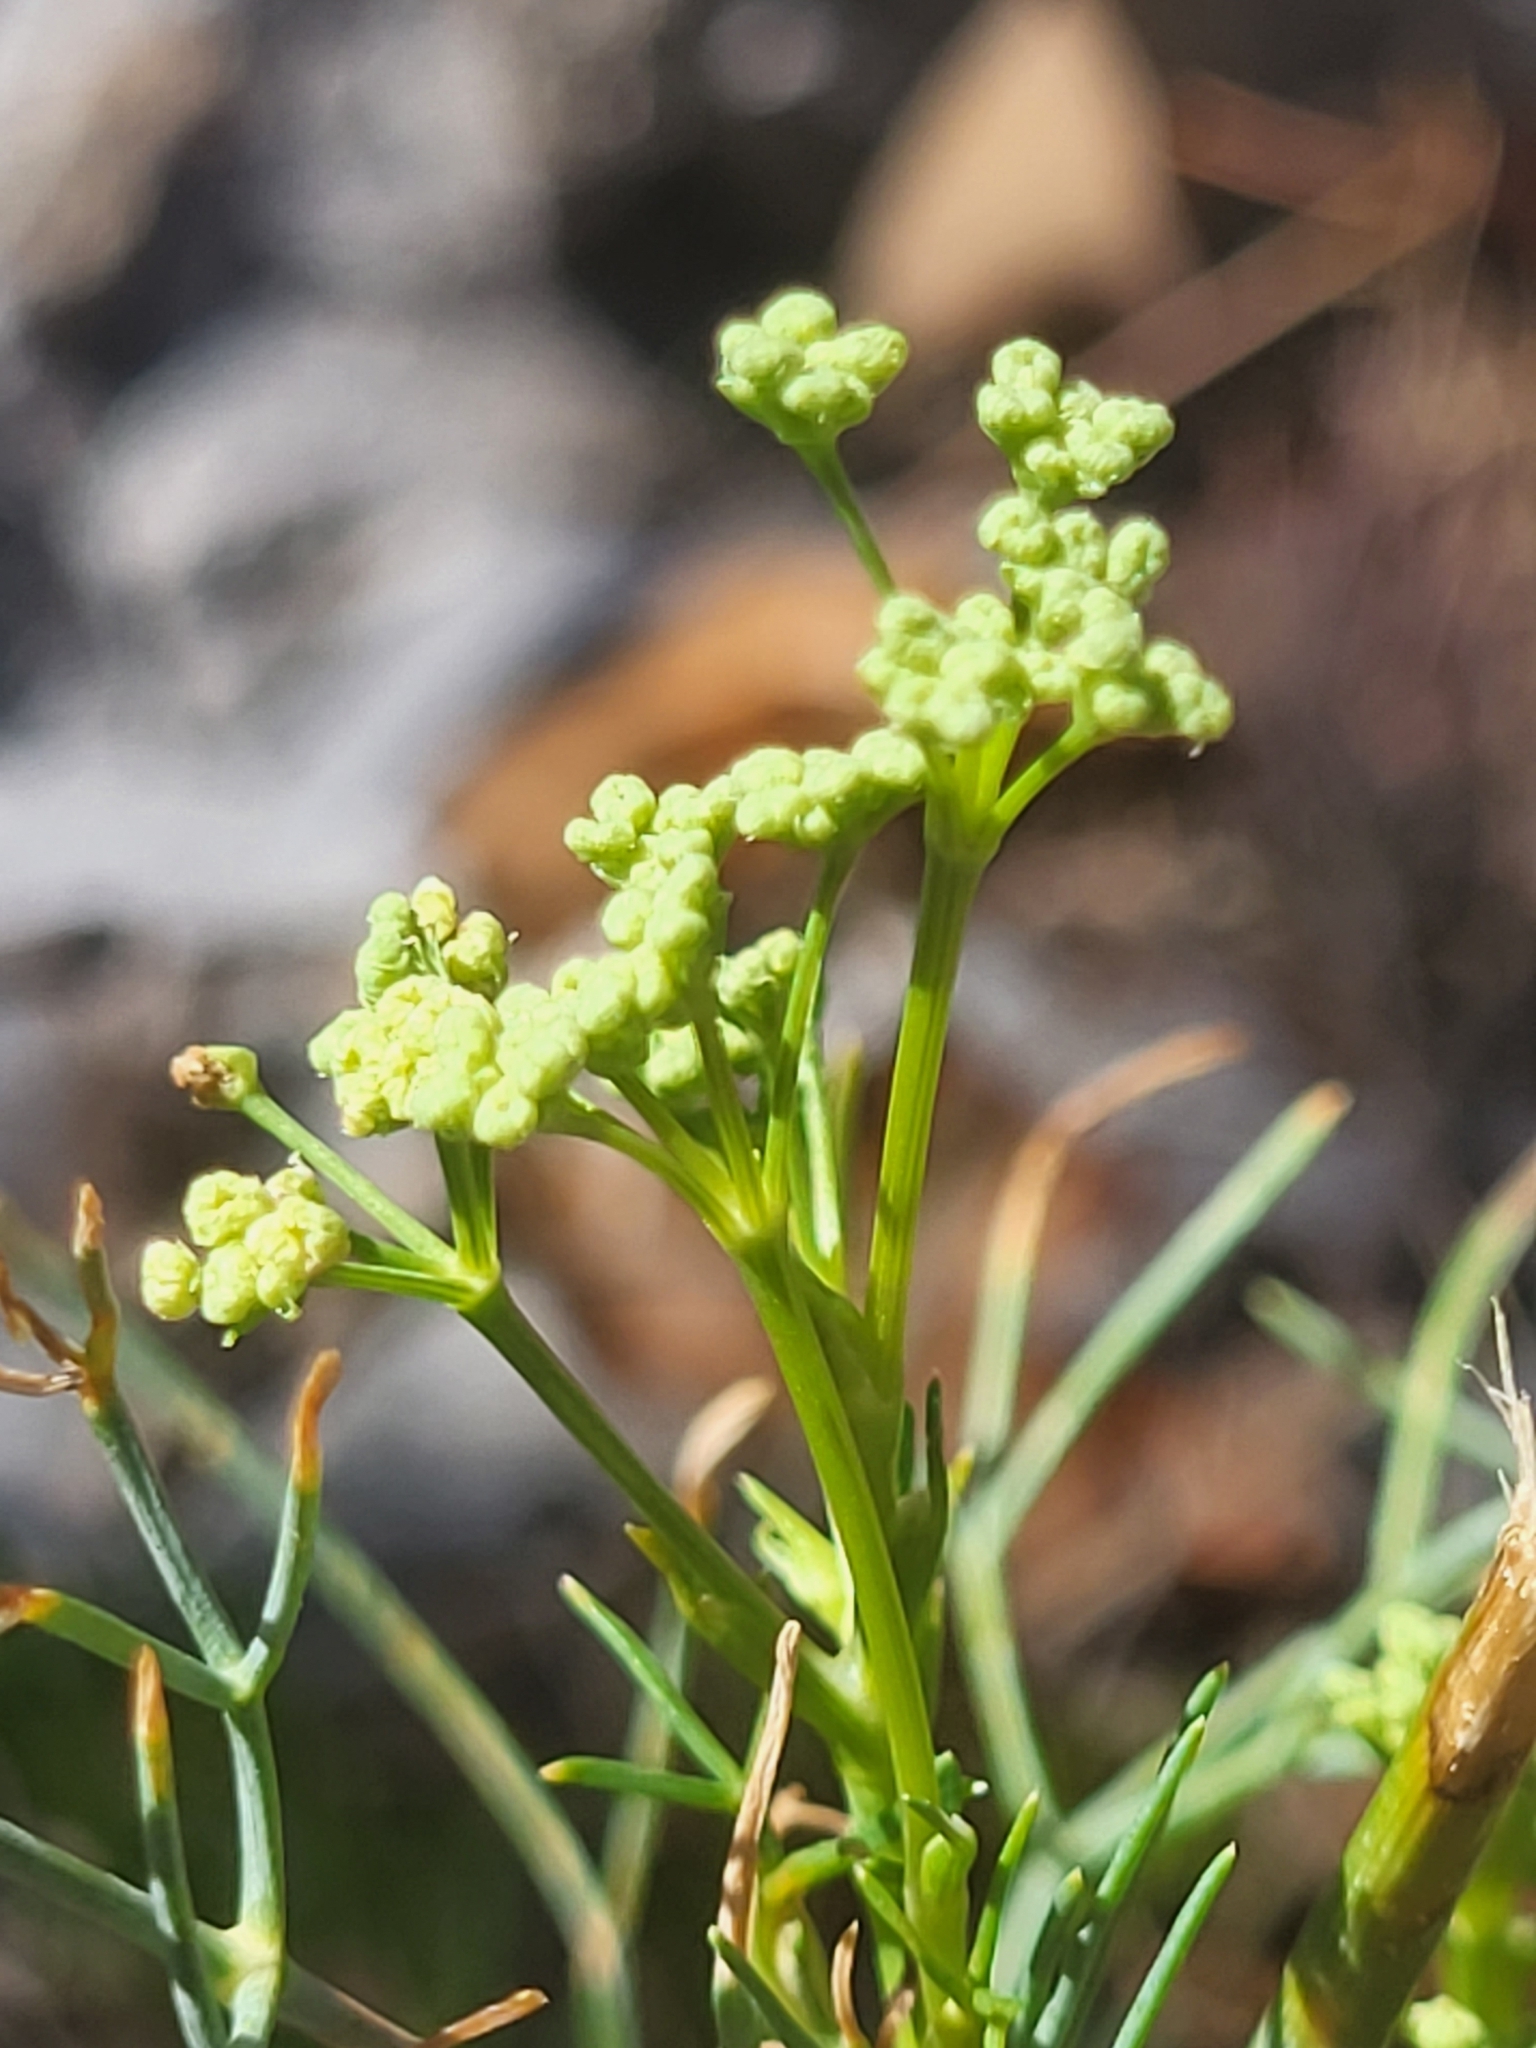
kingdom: Plantae
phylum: Tracheophyta
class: Magnoliopsida
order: Apiales
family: Apiaceae
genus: Seseli
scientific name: Seseli gouanii
